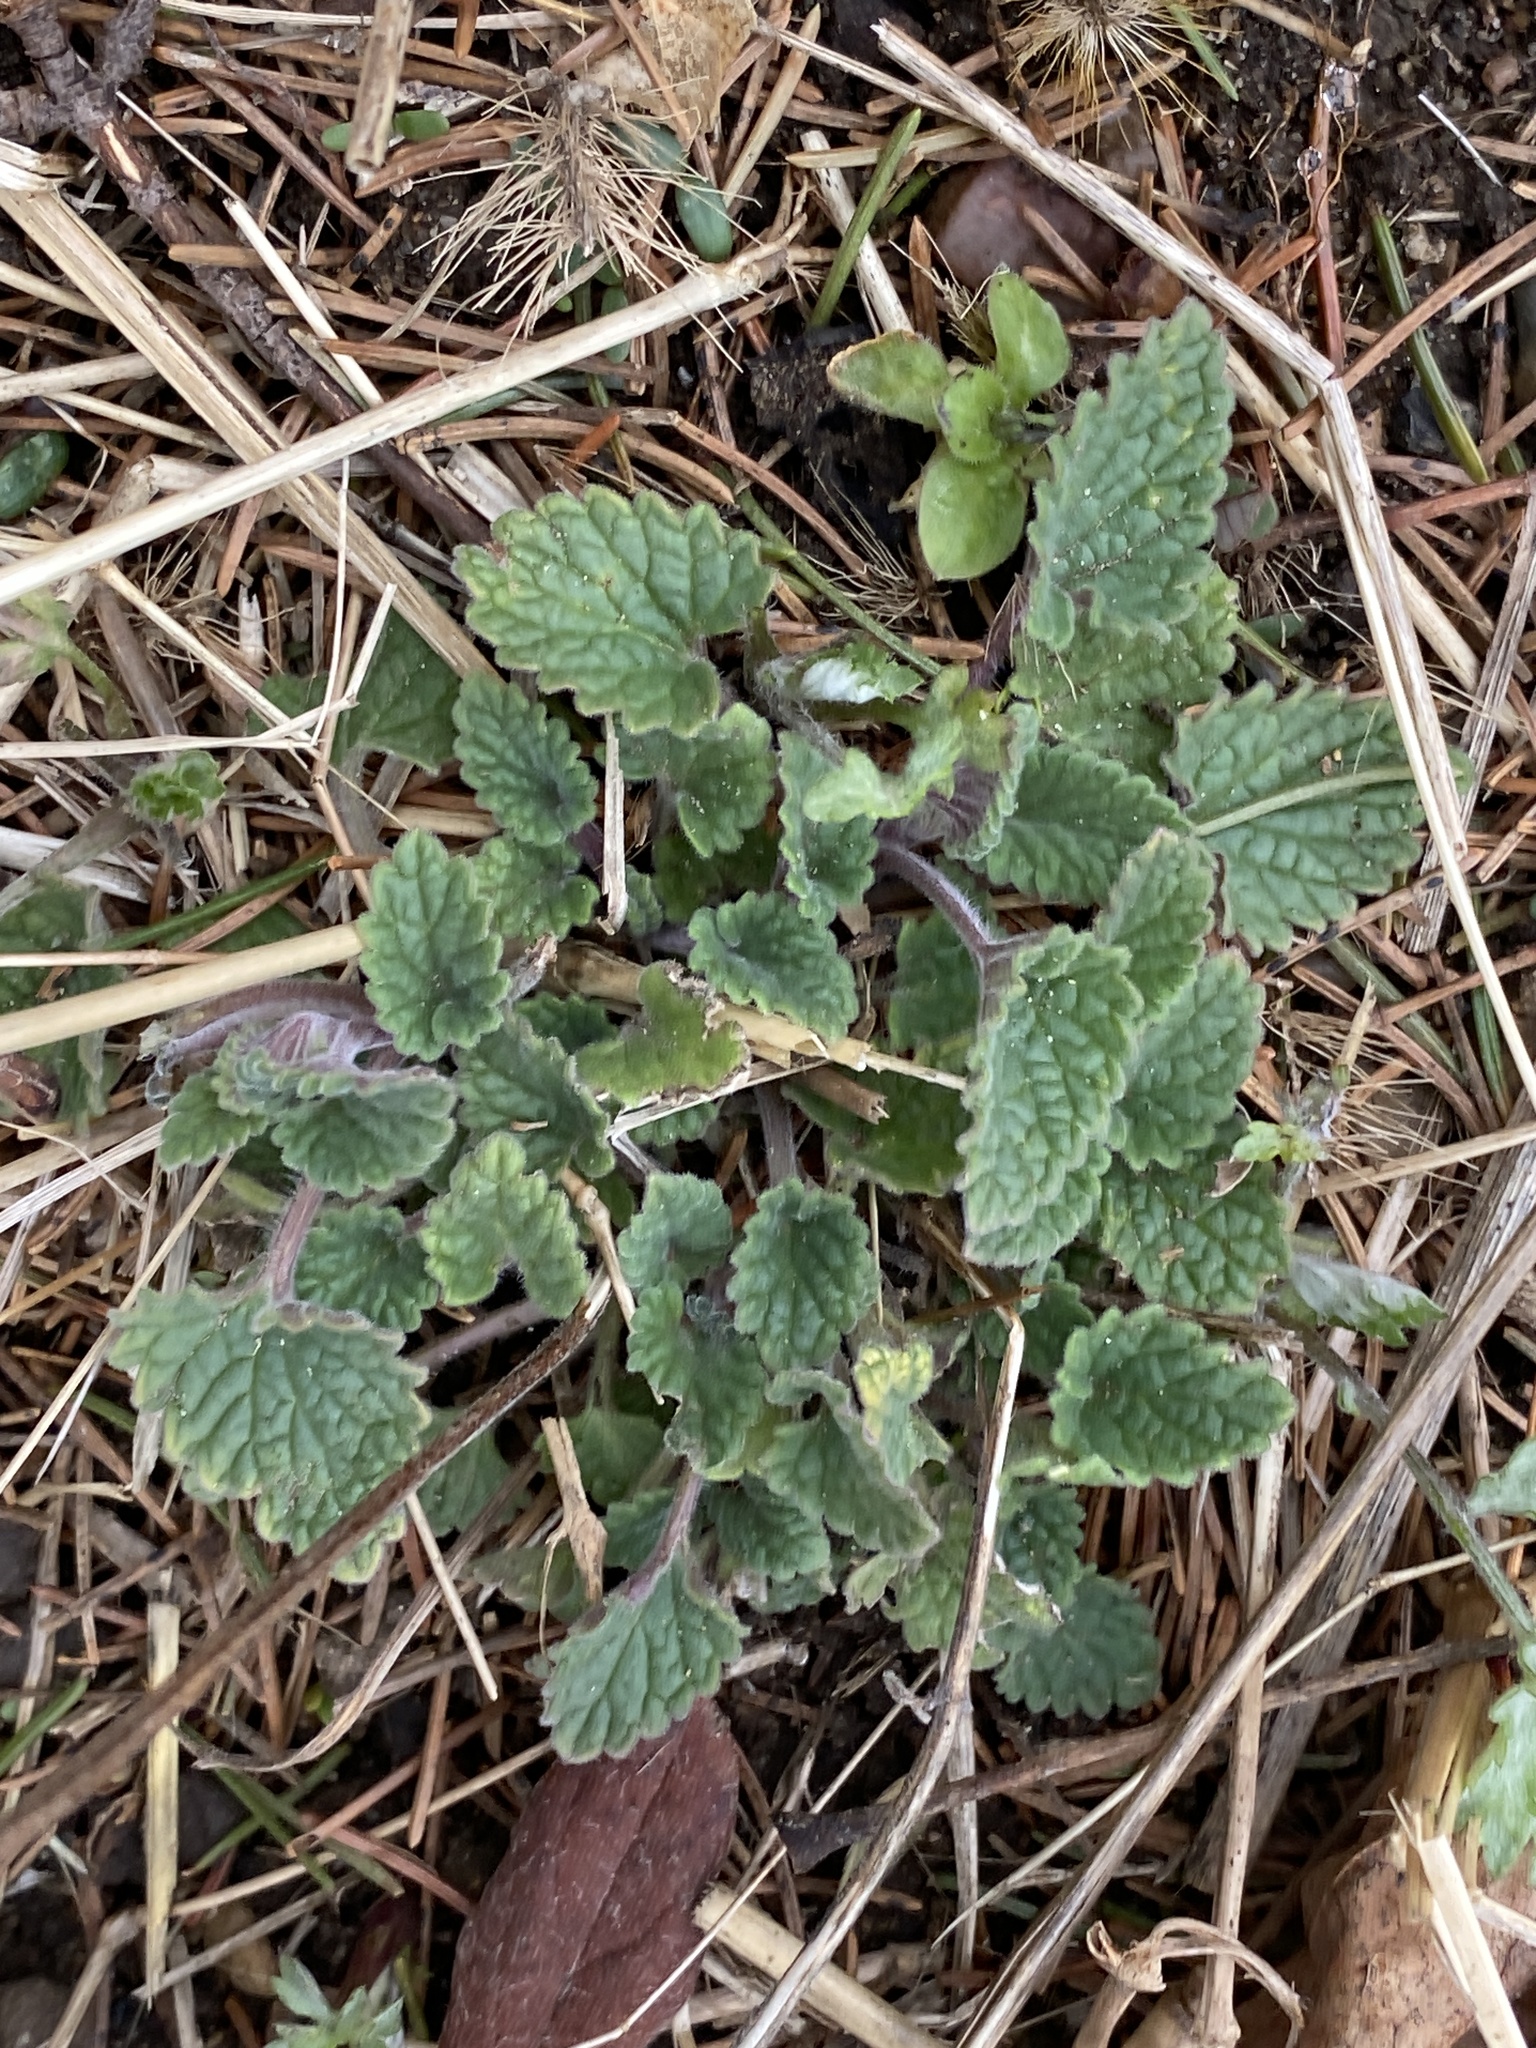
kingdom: Plantae
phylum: Tracheophyta
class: Magnoliopsida
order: Lamiales
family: Lamiaceae
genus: Nepeta
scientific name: Nepeta cataria
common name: Catnip
